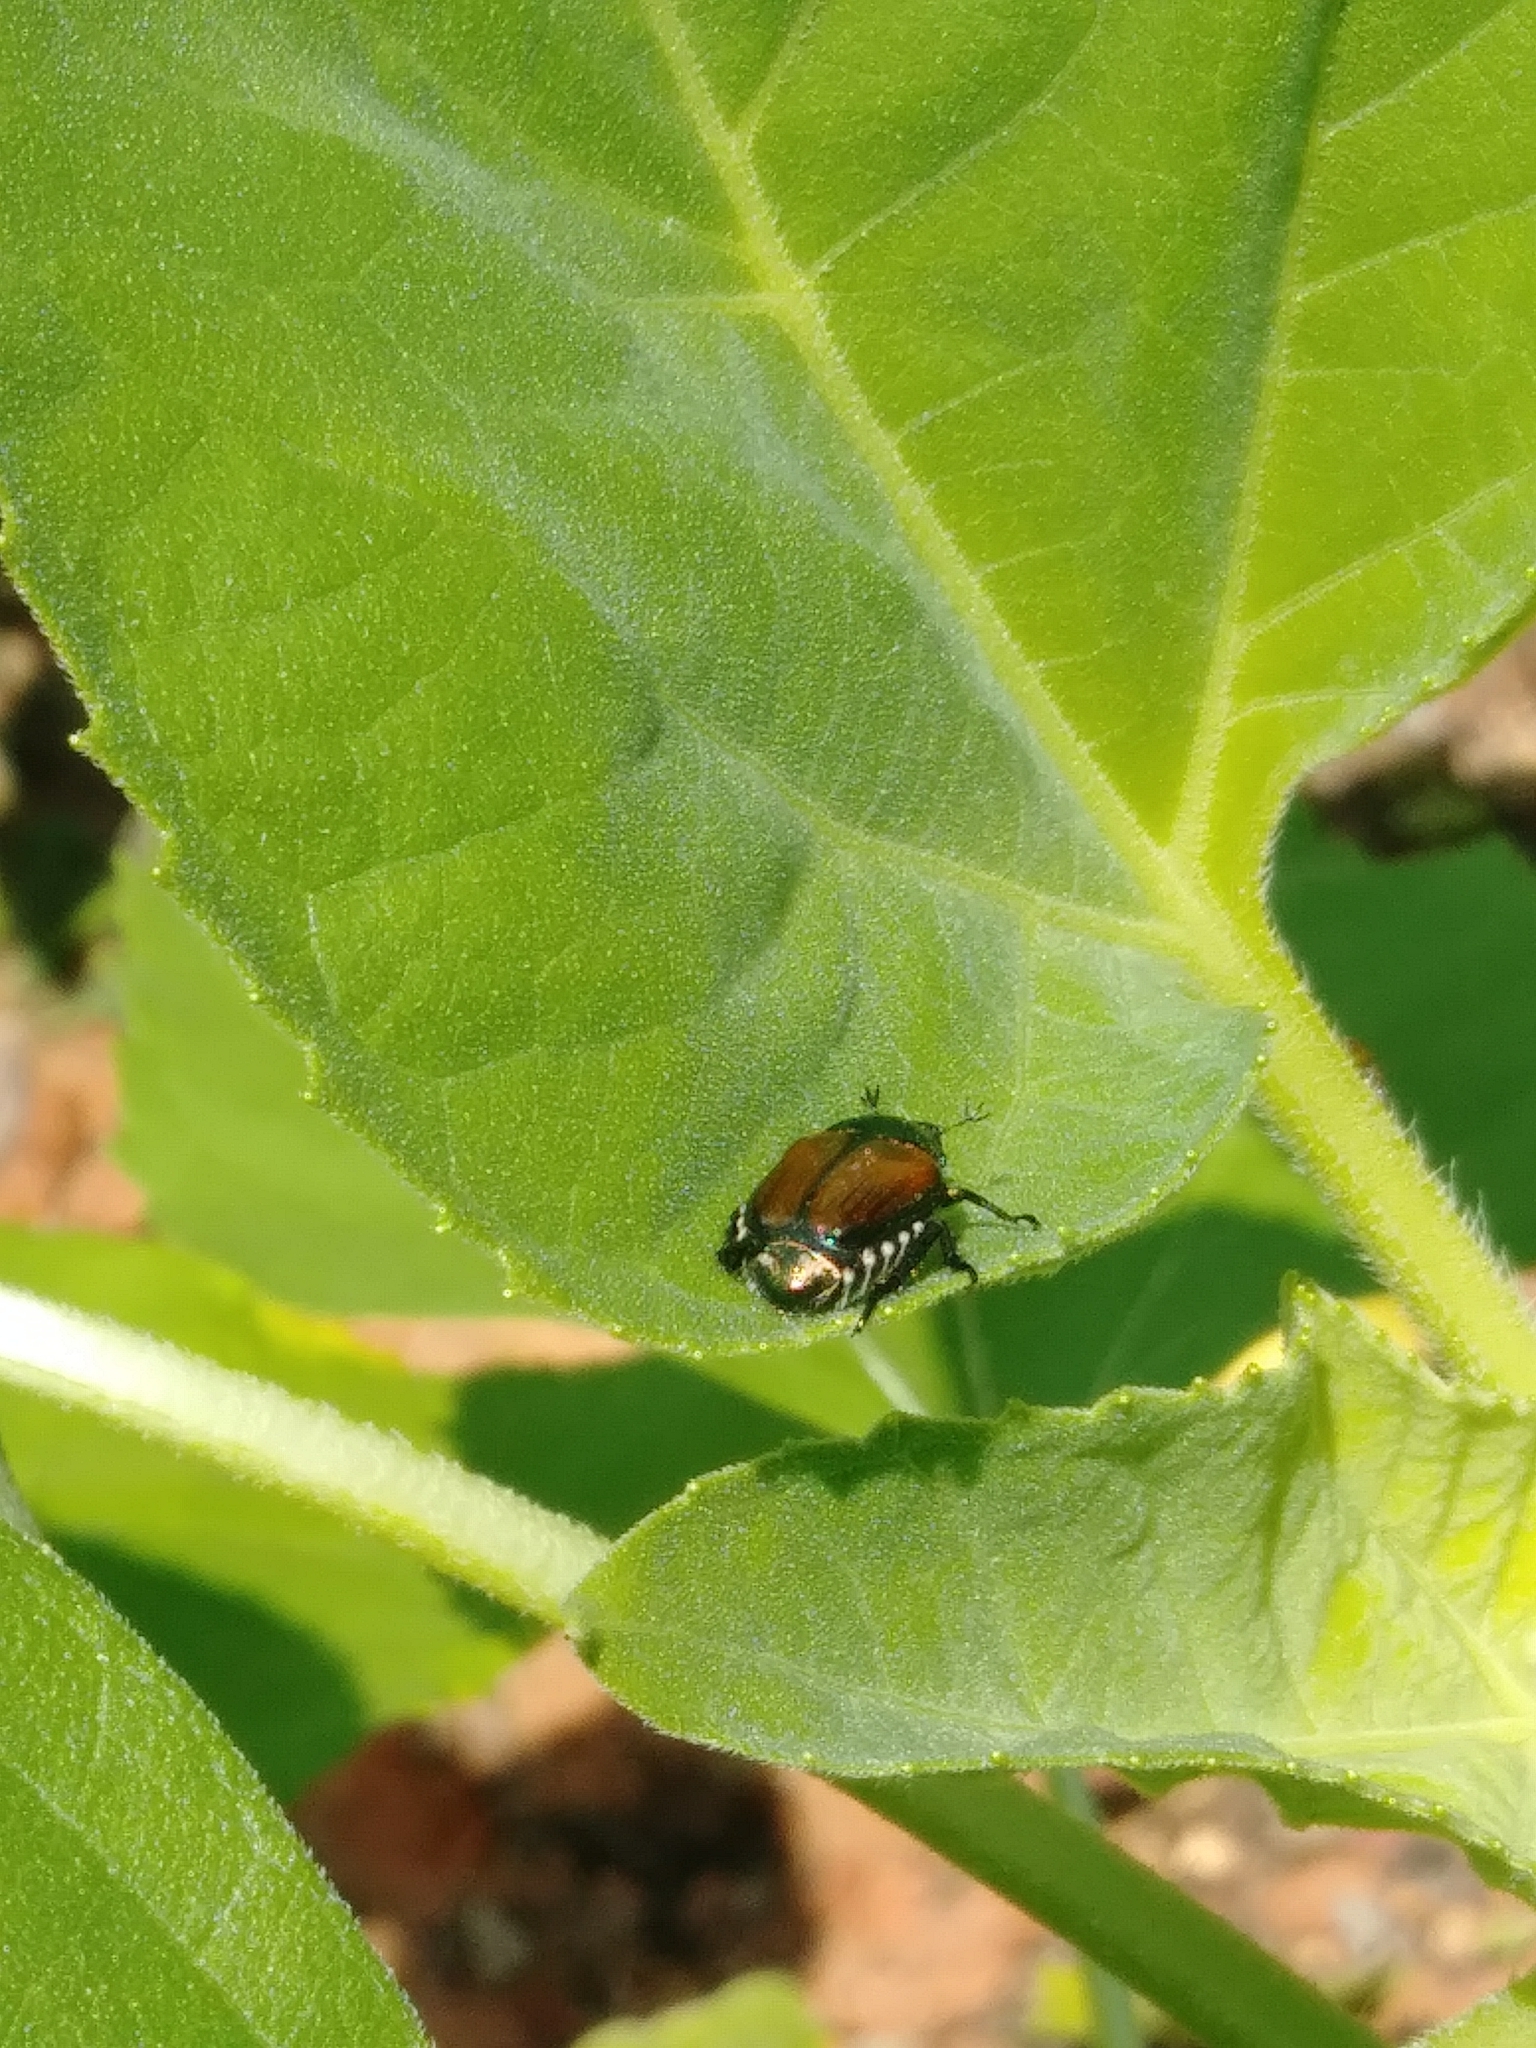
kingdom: Animalia
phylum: Arthropoda
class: Insecta
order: Coleoptera
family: Scarabaeidae
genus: Popillia
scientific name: Popillia japonica
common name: Japanese beetle
